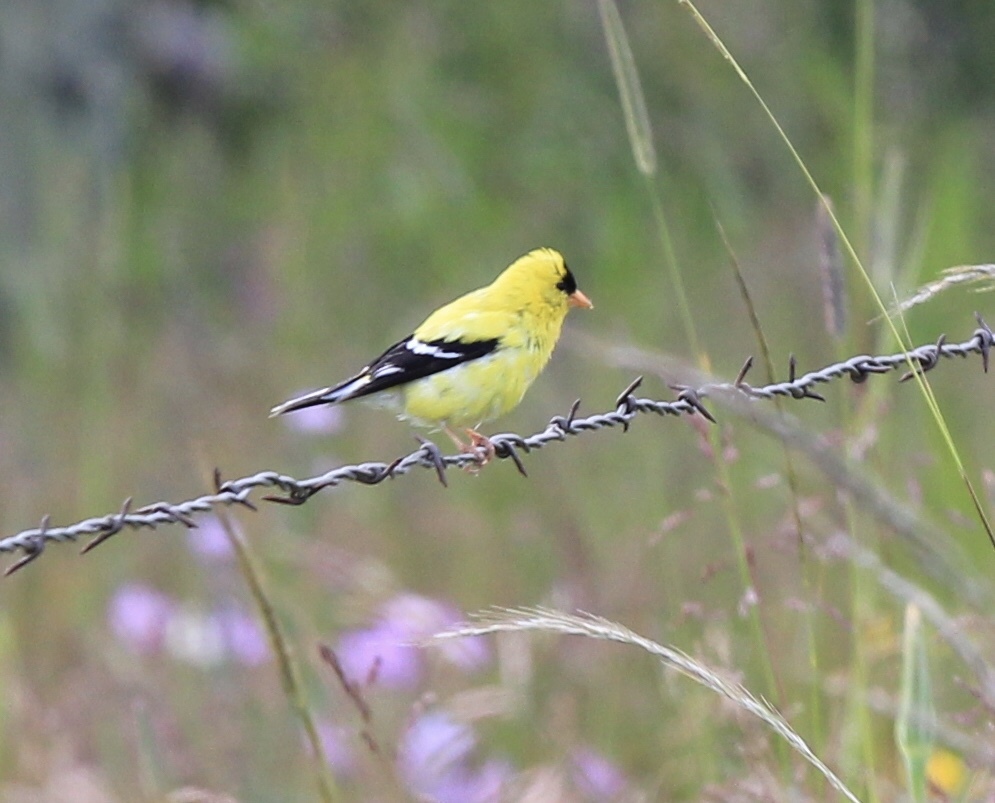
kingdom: Animalia
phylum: Chordata
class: Aves
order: Passeriformes
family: Fringillidae
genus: Spinus
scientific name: Spinus tristis
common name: American goldfinch
